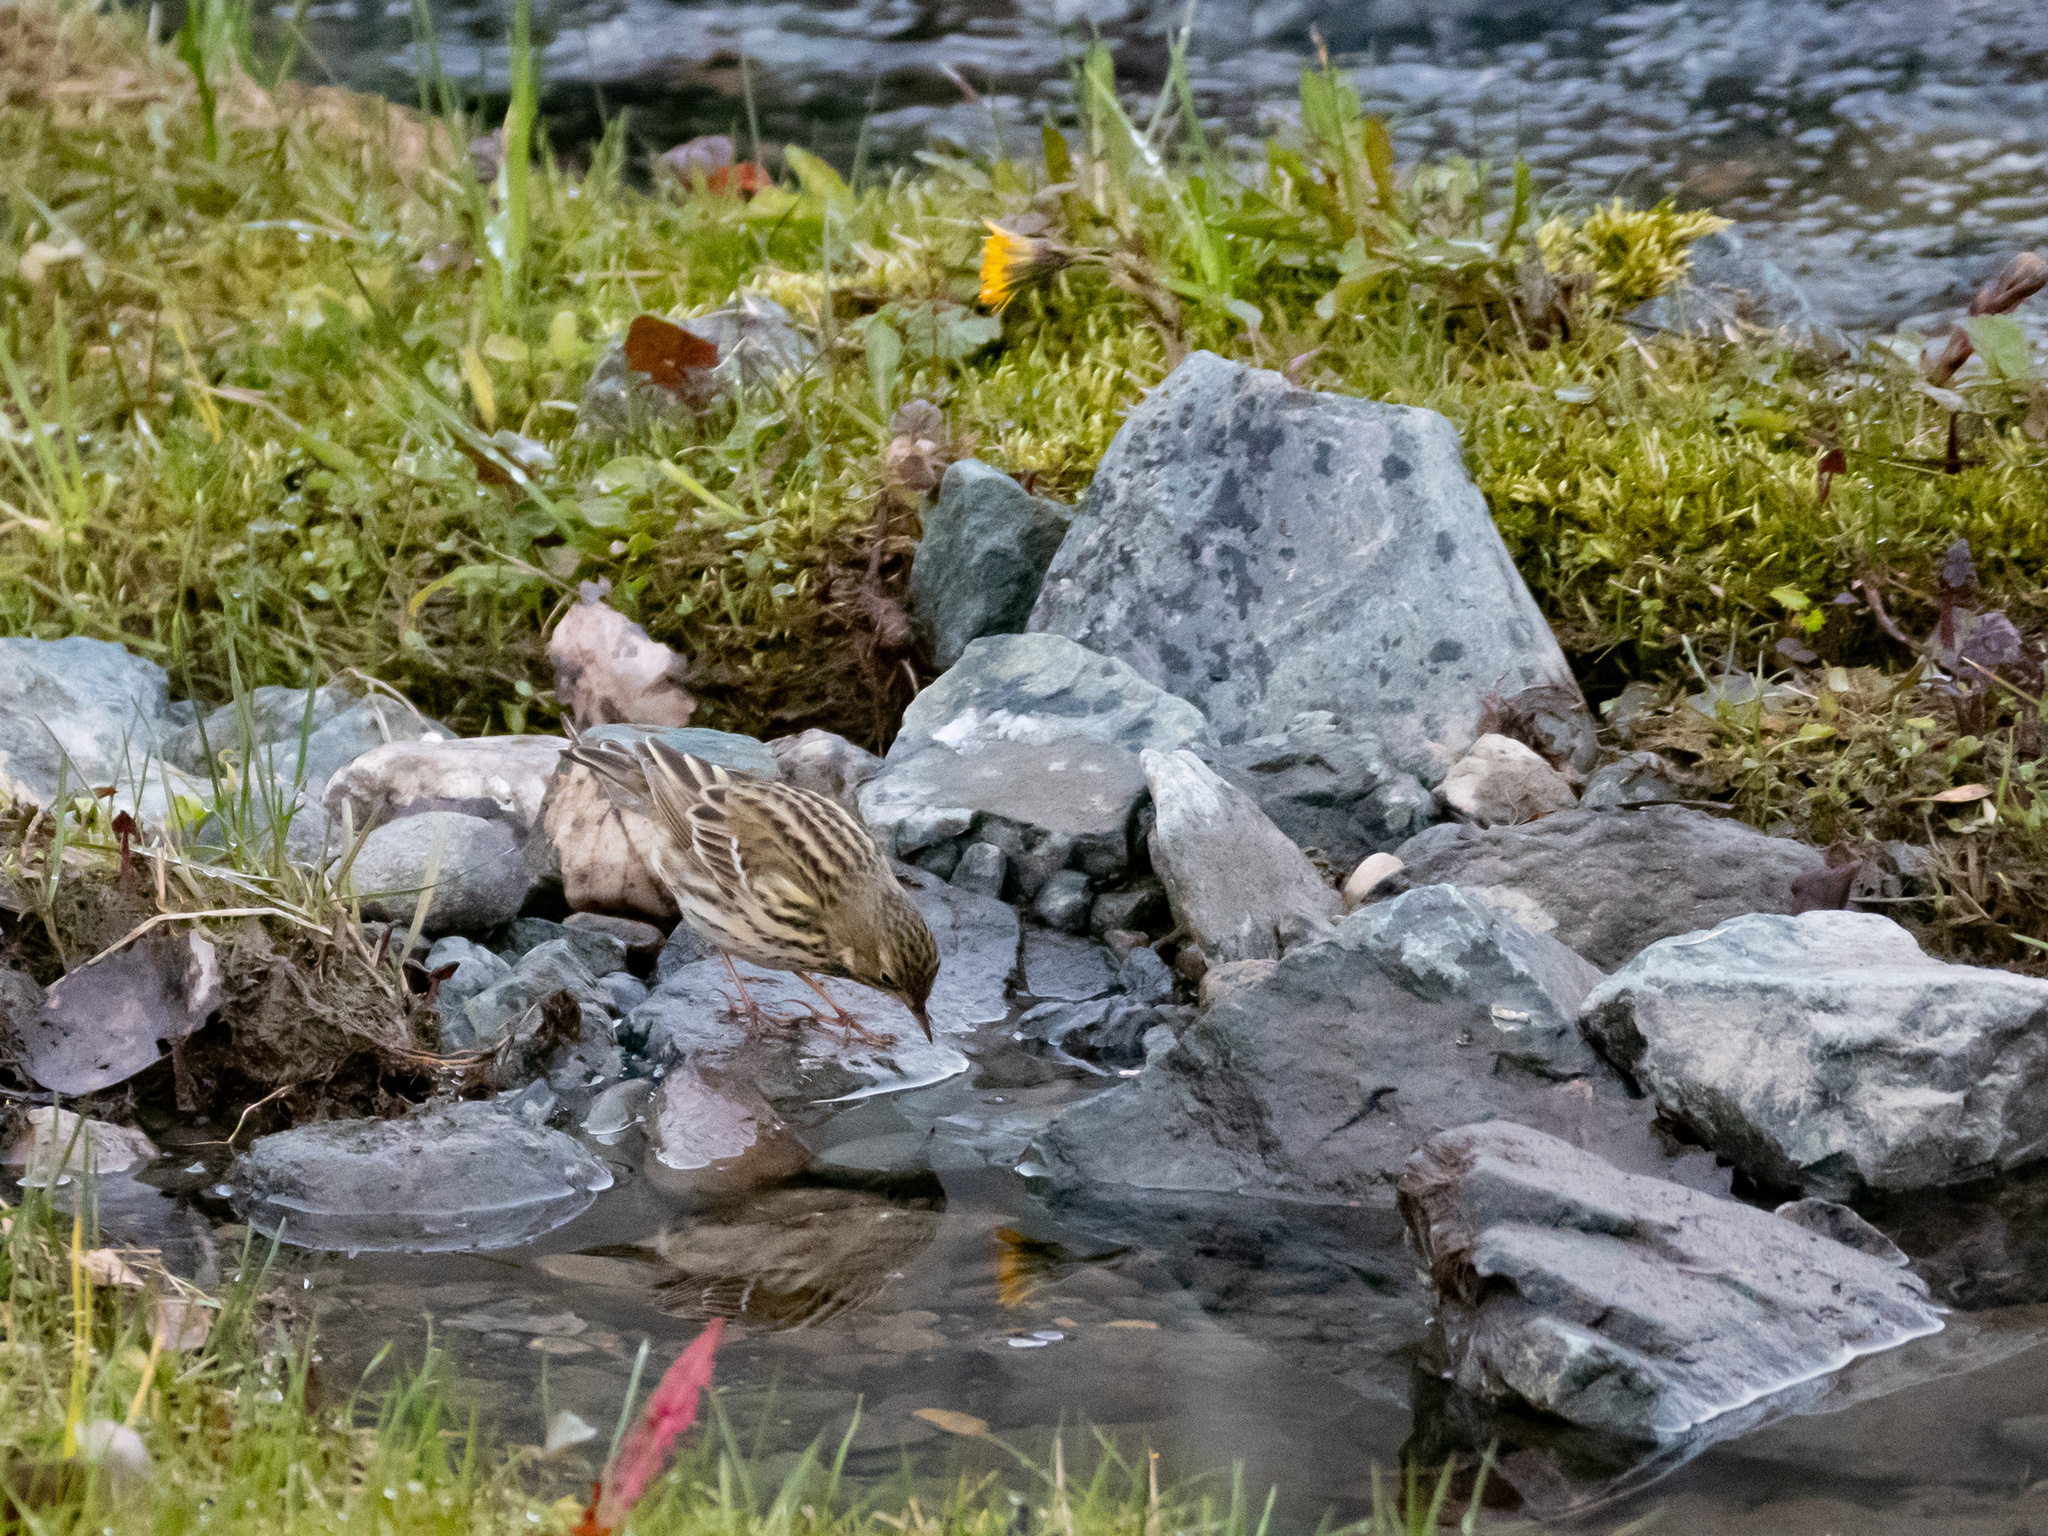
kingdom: Animalia
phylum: Chordata
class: Aves
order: Passeriformes
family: Motacillidae
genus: Anthus
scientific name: Anthus pratensis
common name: Meadow pipit
